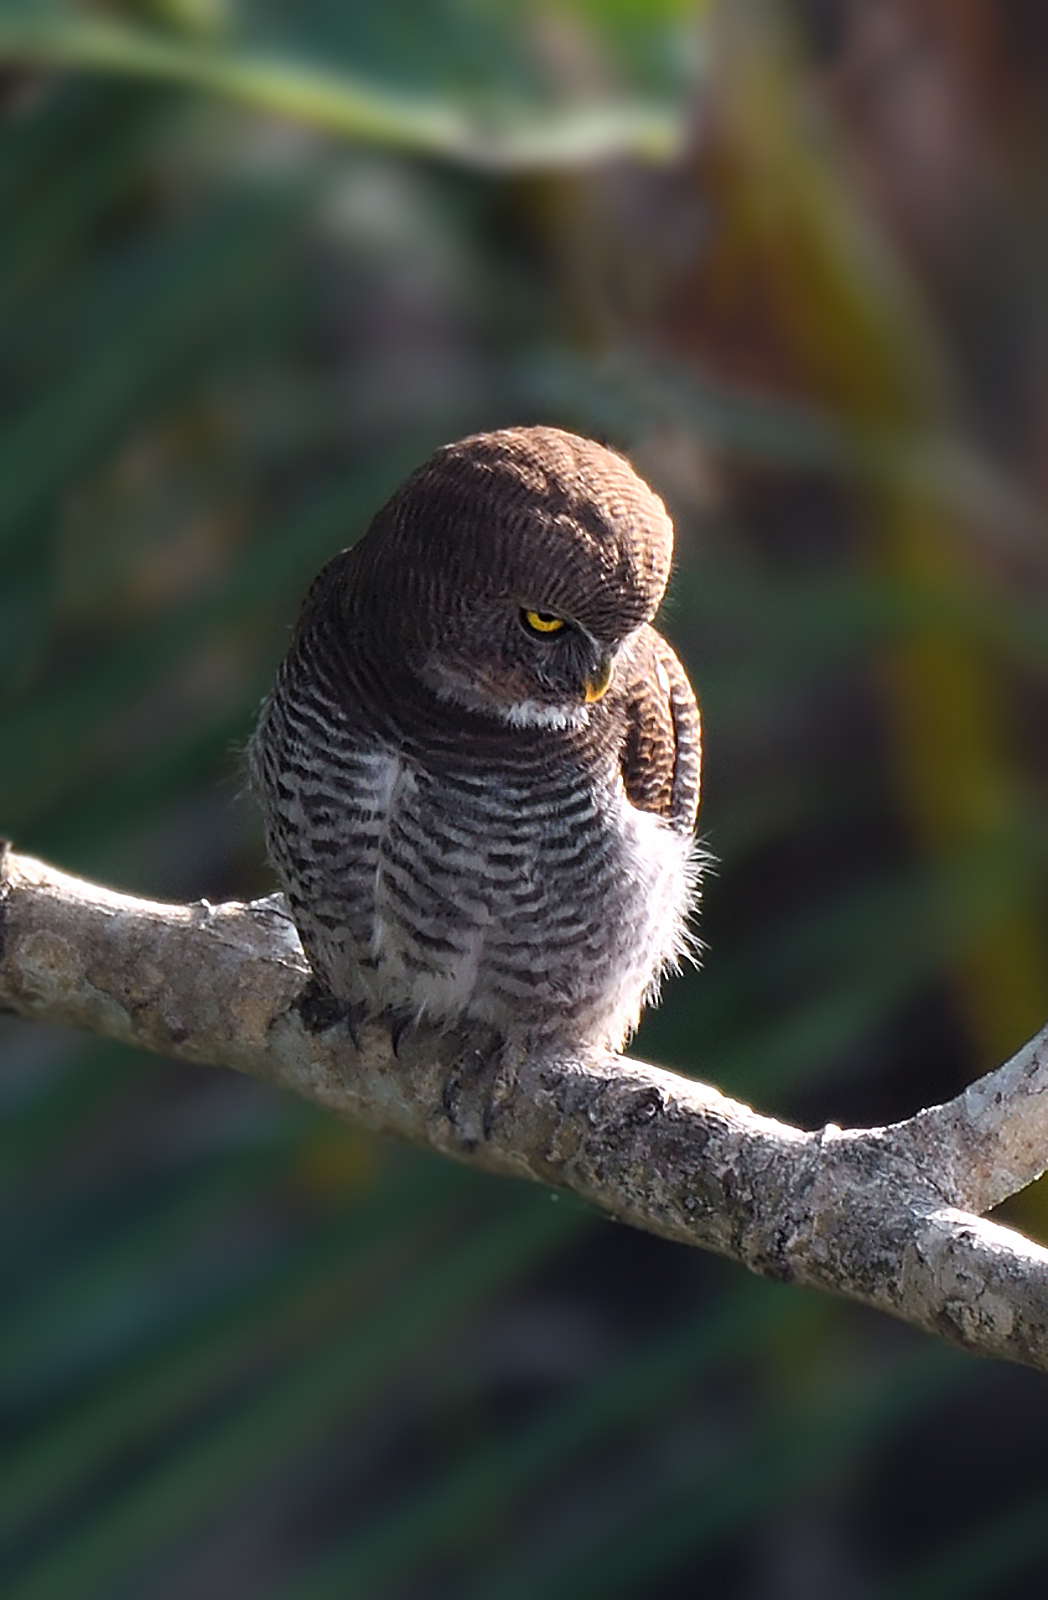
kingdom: Animalia
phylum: Chordata
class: Aves
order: Strigiformes
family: Strigidae
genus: Glaucidium
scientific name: Glaucidium radiatum
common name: Jungle owlet
